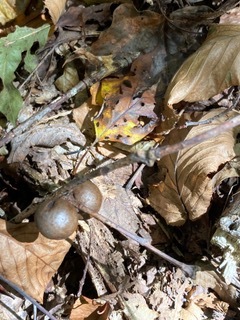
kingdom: Animalia
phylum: Arthropoda
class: Insecta
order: Hymenoptera
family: Cynipidae
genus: Disholcaspis
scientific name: Disholcaspis quercusglobulus
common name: Round bullet gall wasp
